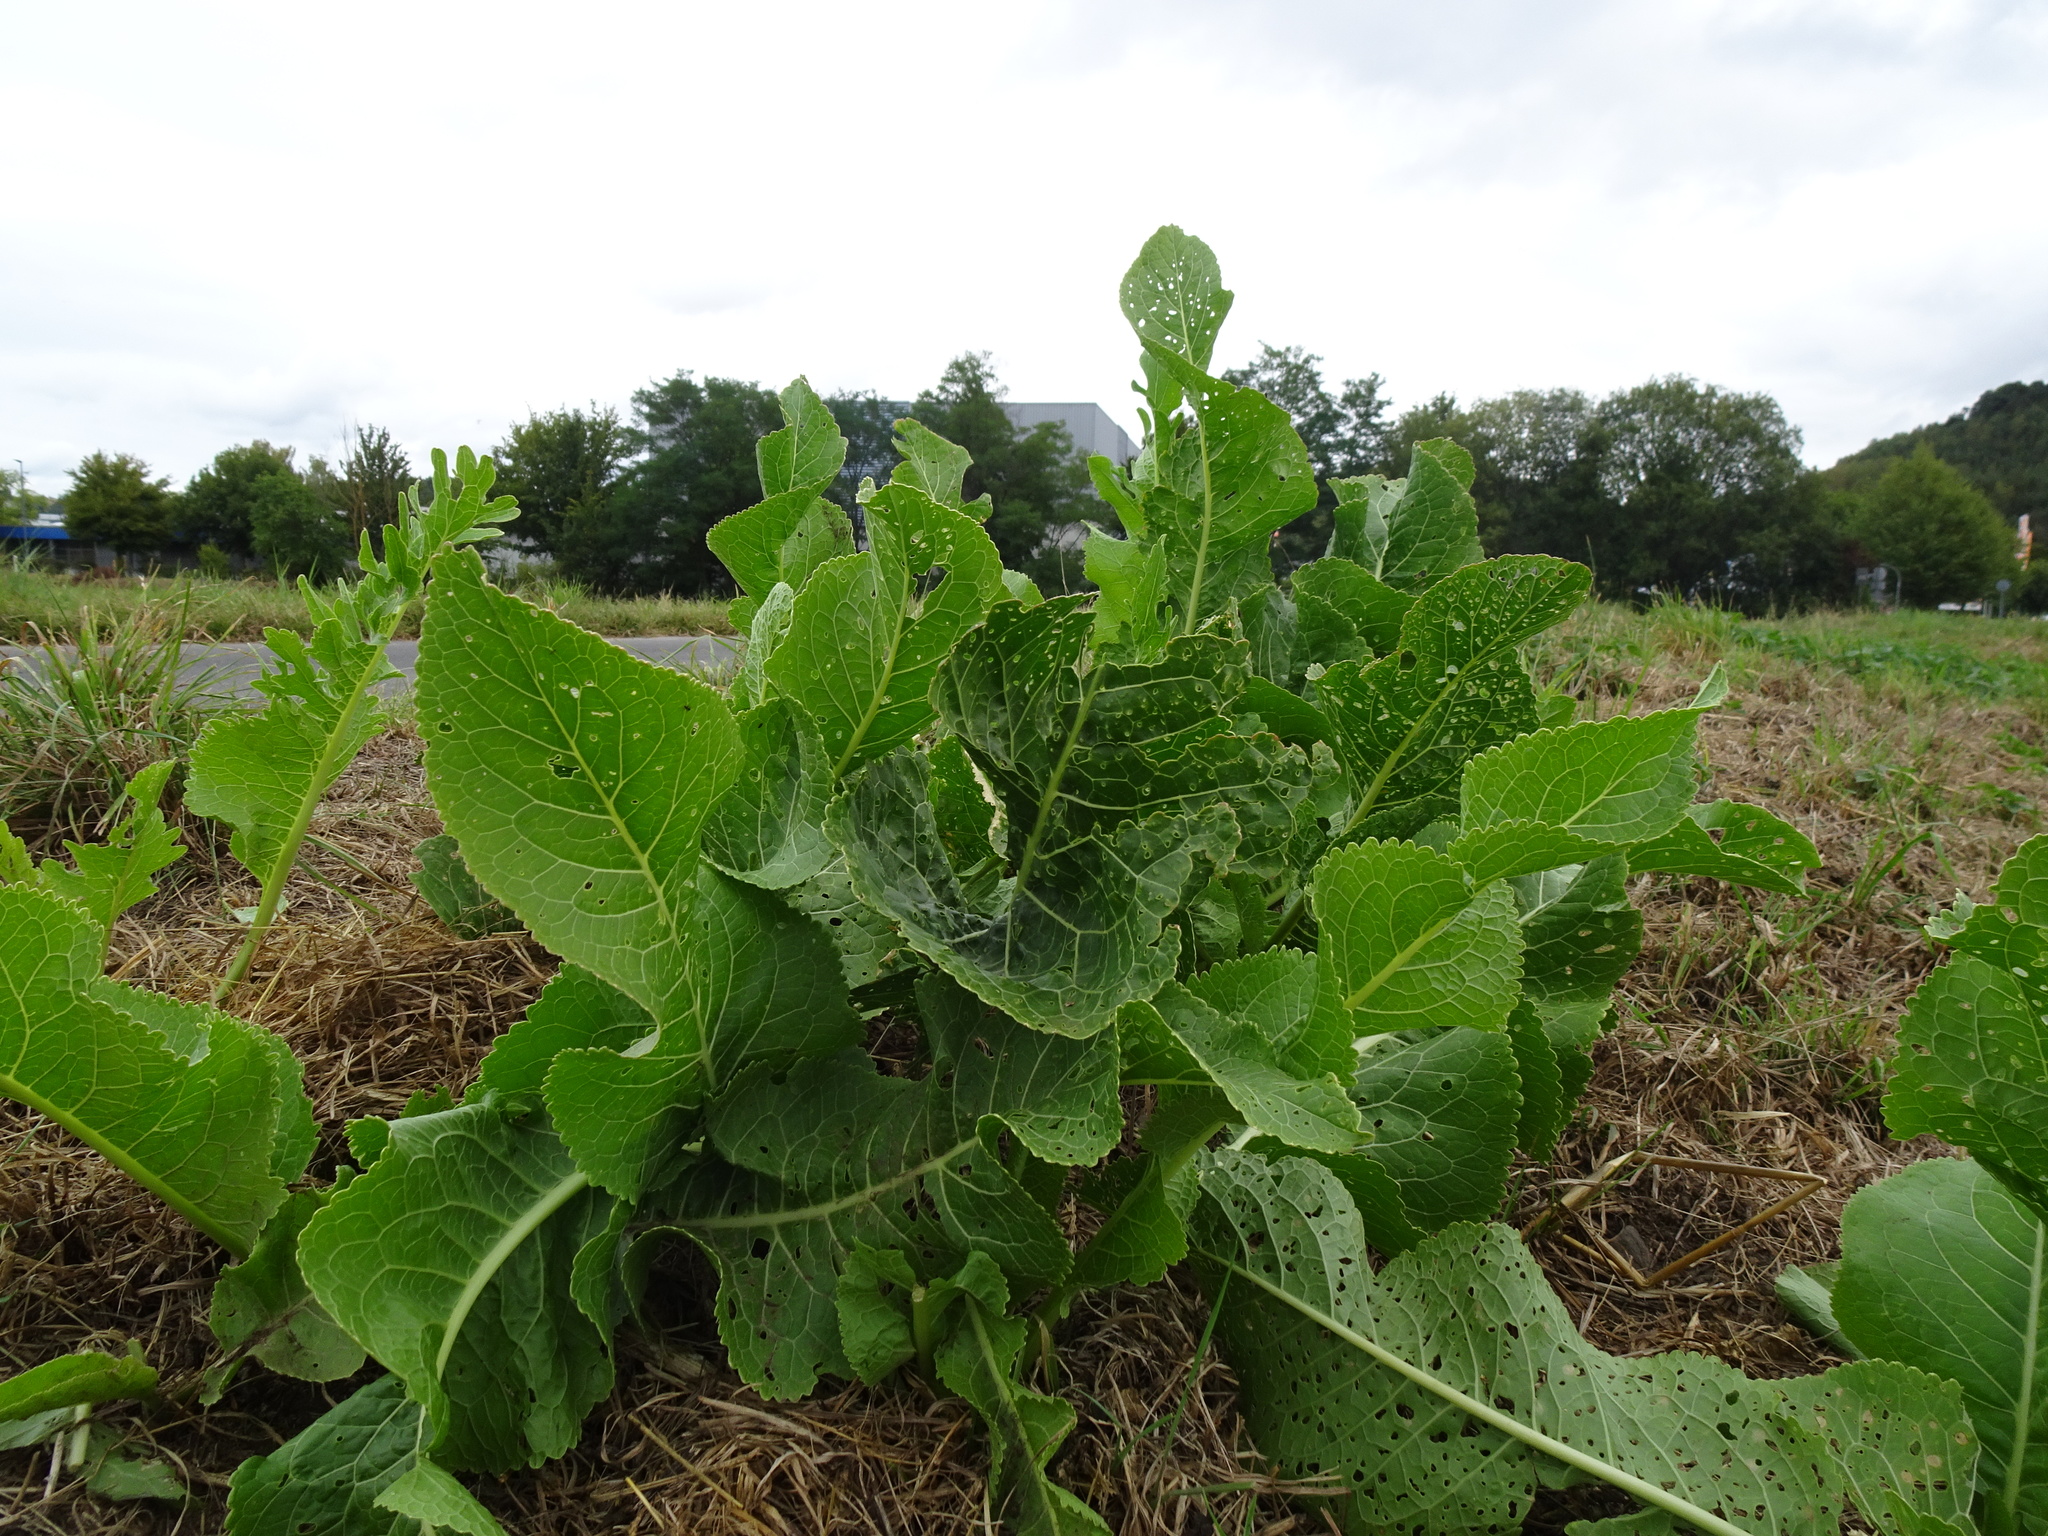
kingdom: Plantae
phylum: Tracheophyta
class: Magnoliopsida
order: Brassicales
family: Brassicaceae
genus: Armoracia
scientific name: Armoracia rusticana
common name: Horseradish
